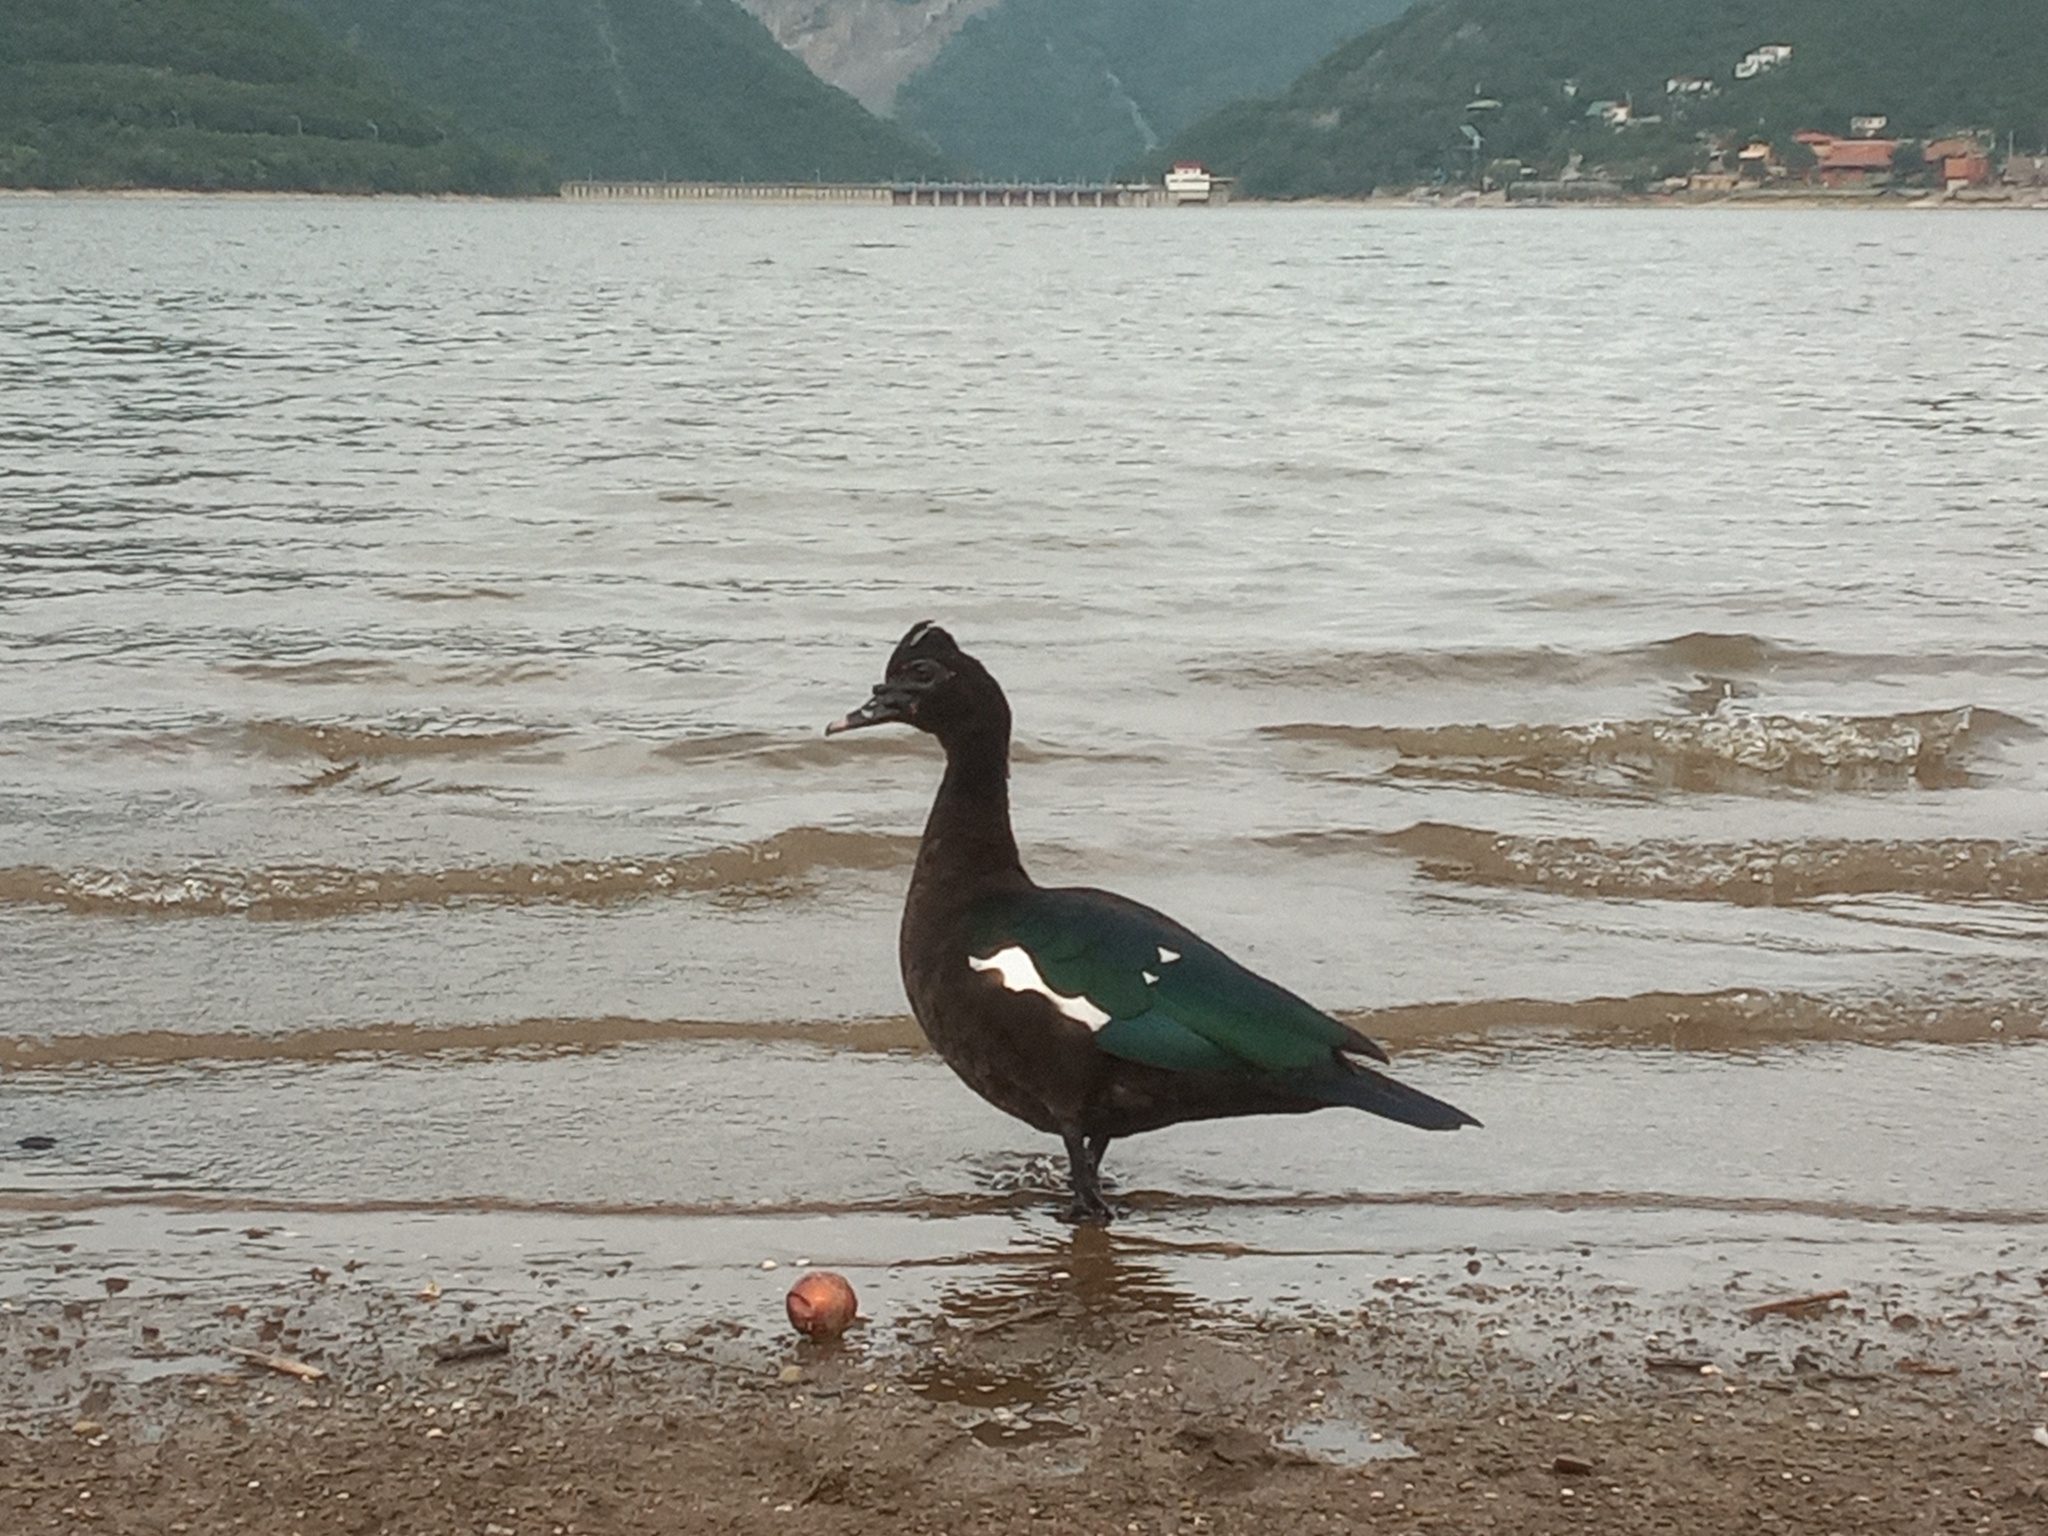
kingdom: Animalia
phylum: Chordata
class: Aves
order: Anseriformes
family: Anatidae
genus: Cairina
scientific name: Cairina moschata
